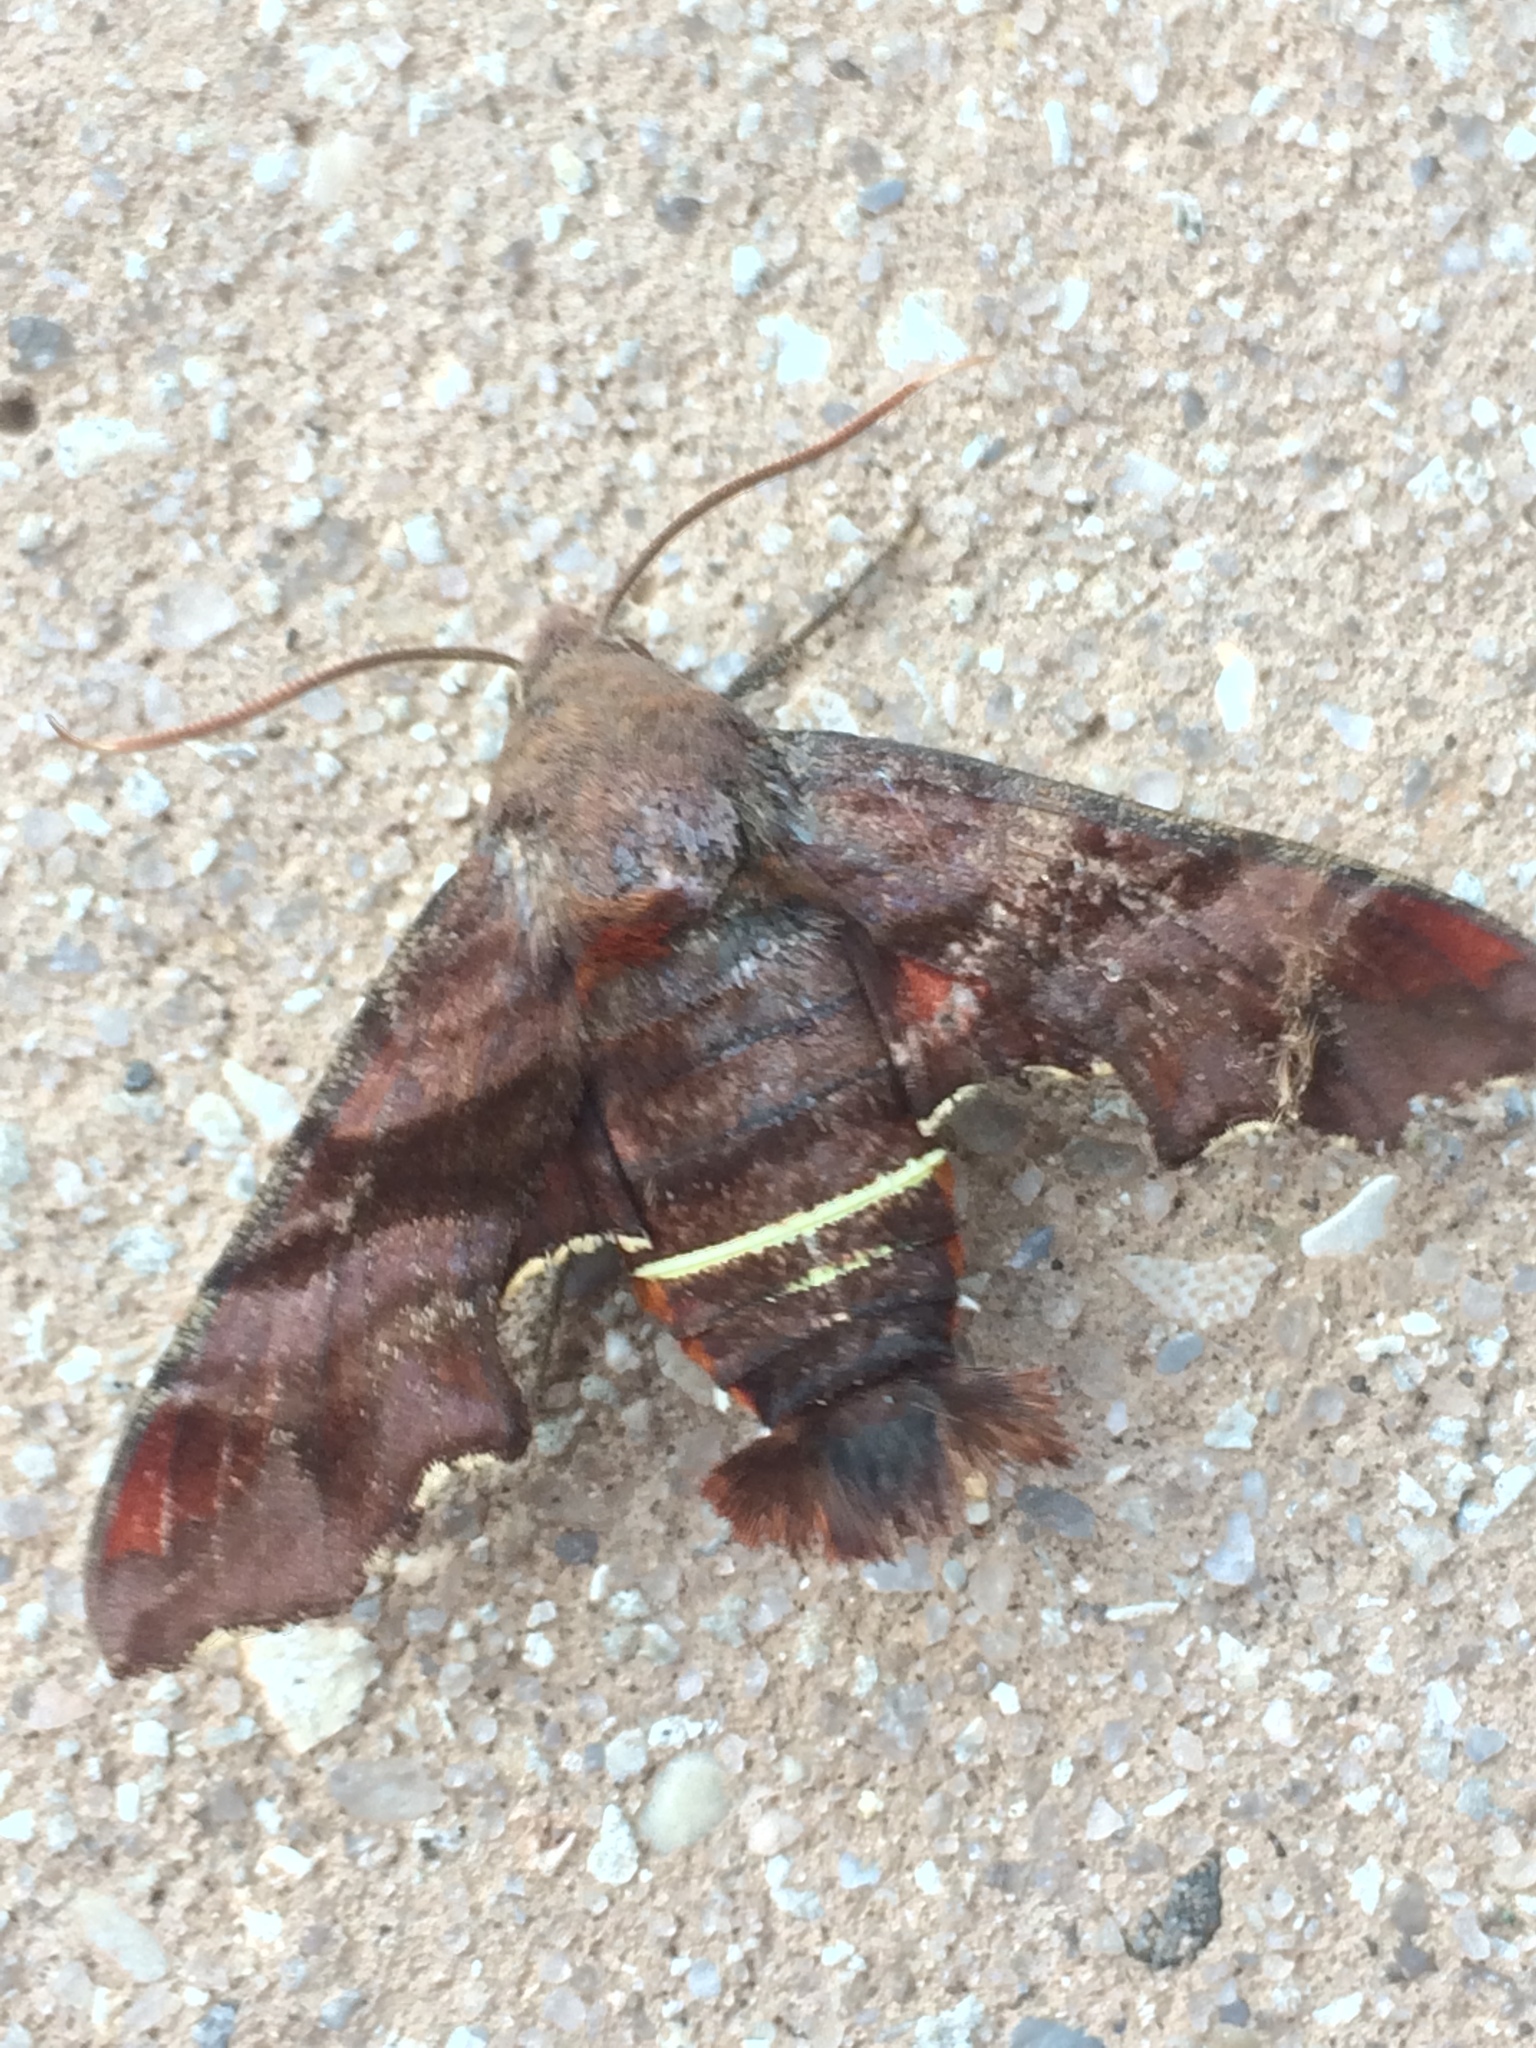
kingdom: Animalia
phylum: Arthropoda
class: Insecta
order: Lepidoptera
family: Sphingidae
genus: Amphion
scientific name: Amphion floridensis
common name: Nessus sphinx
